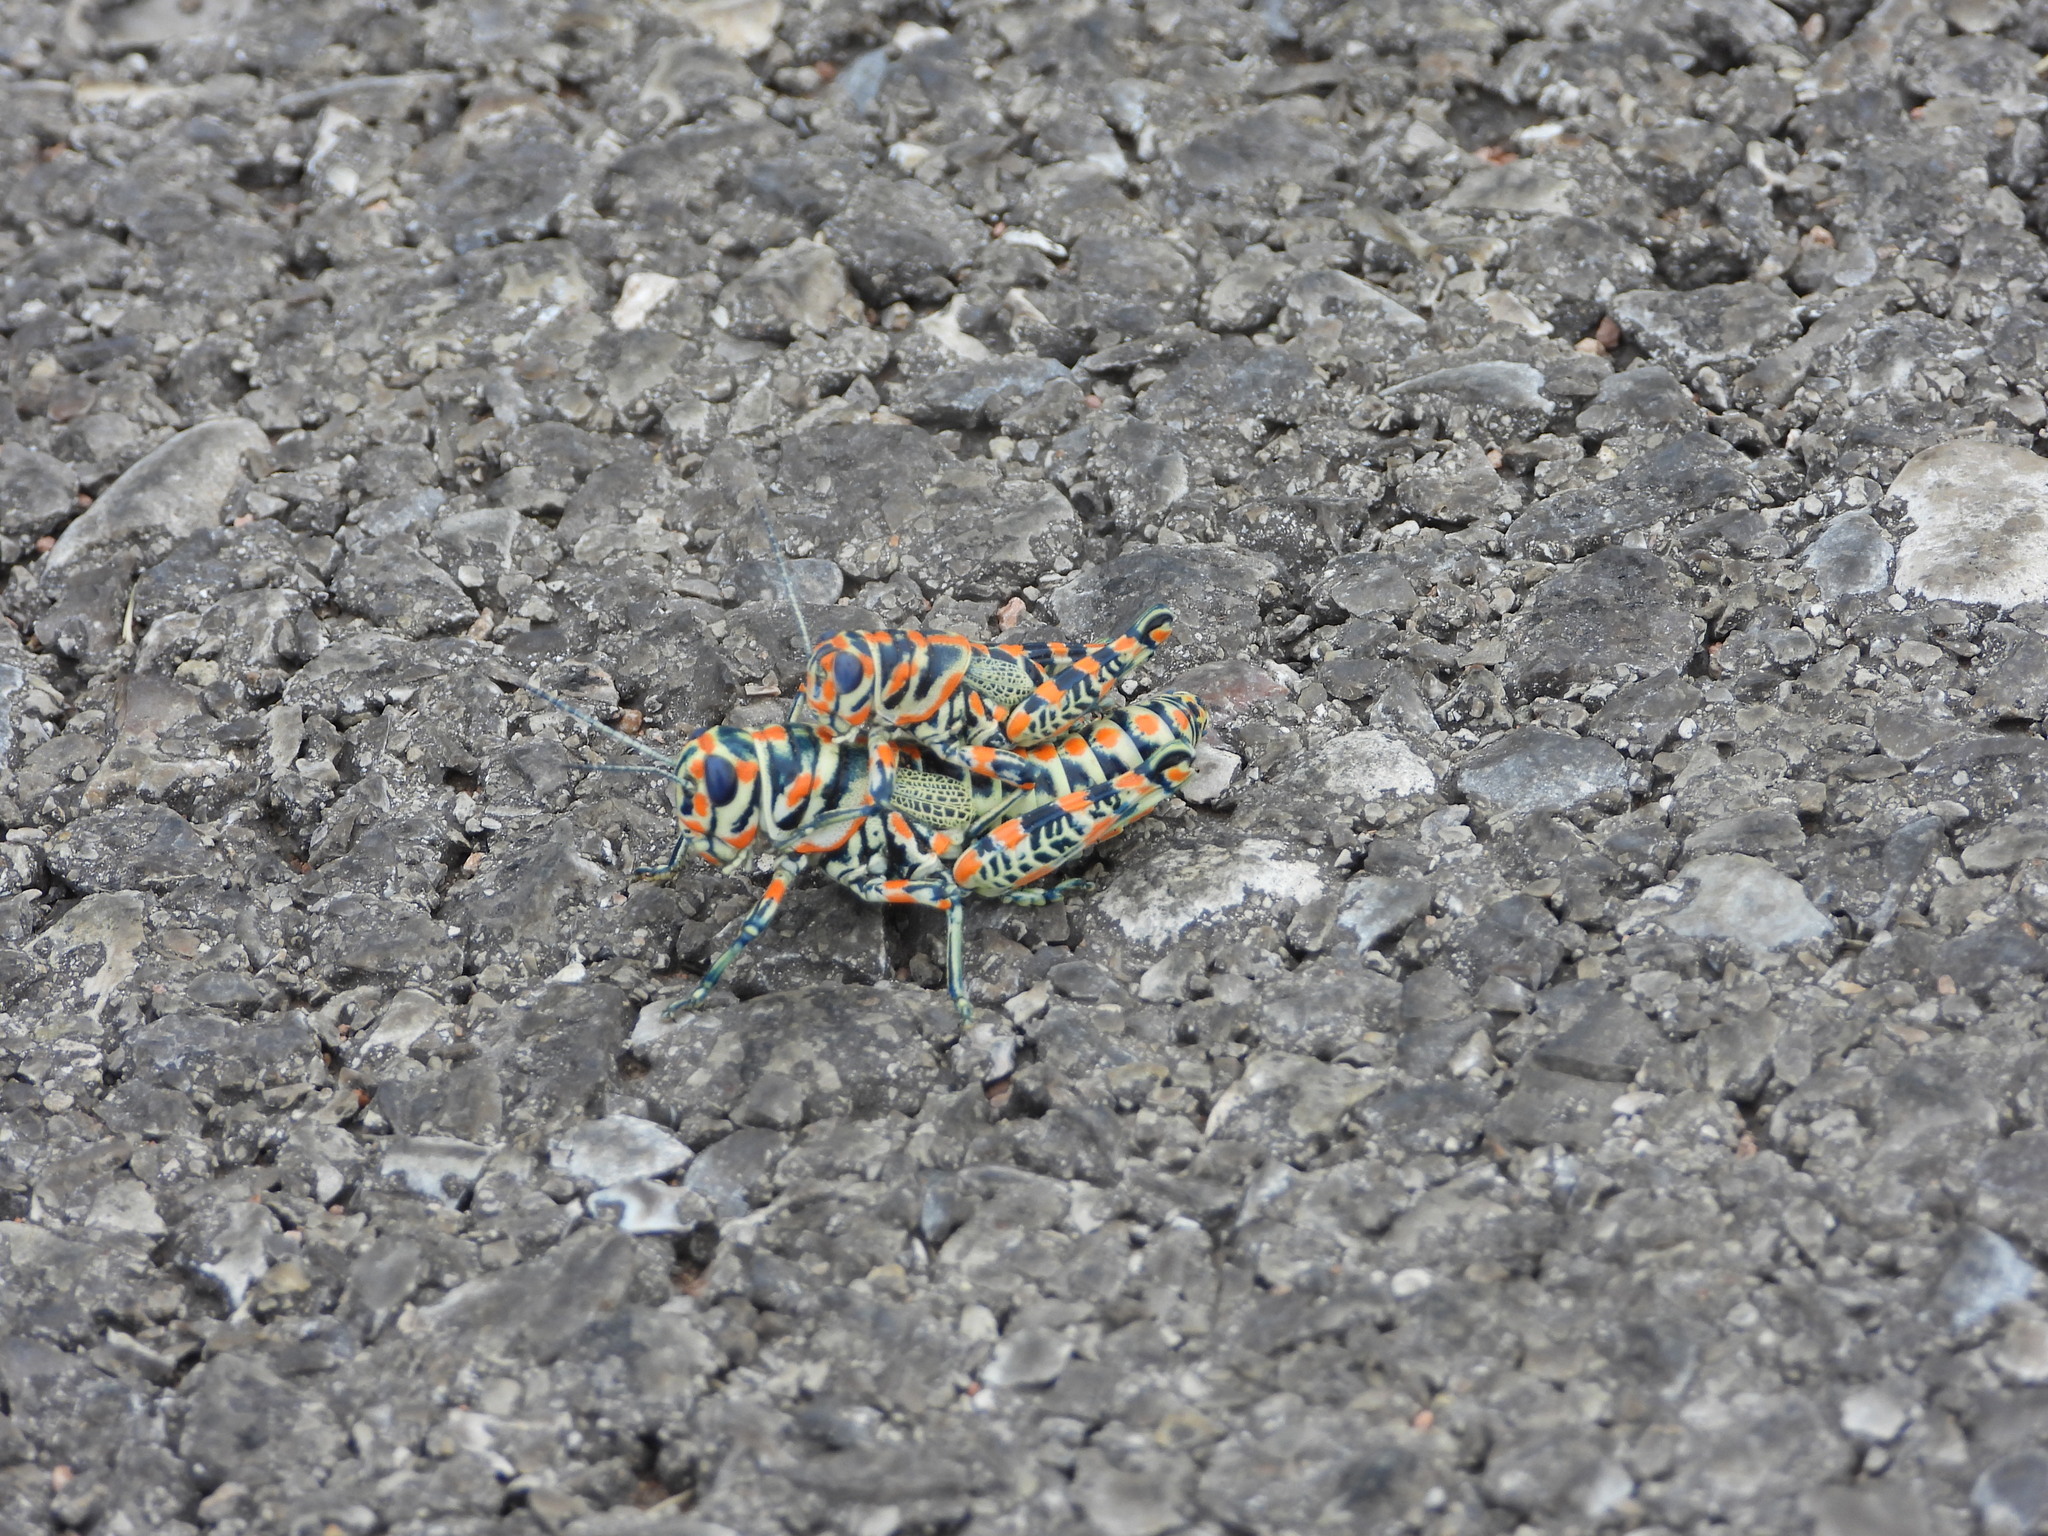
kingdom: Animalia
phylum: Arthropoda
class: Insecta
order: Orthoptera
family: Acrididae
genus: Dactylotum
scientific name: Dactylotum bicolor
